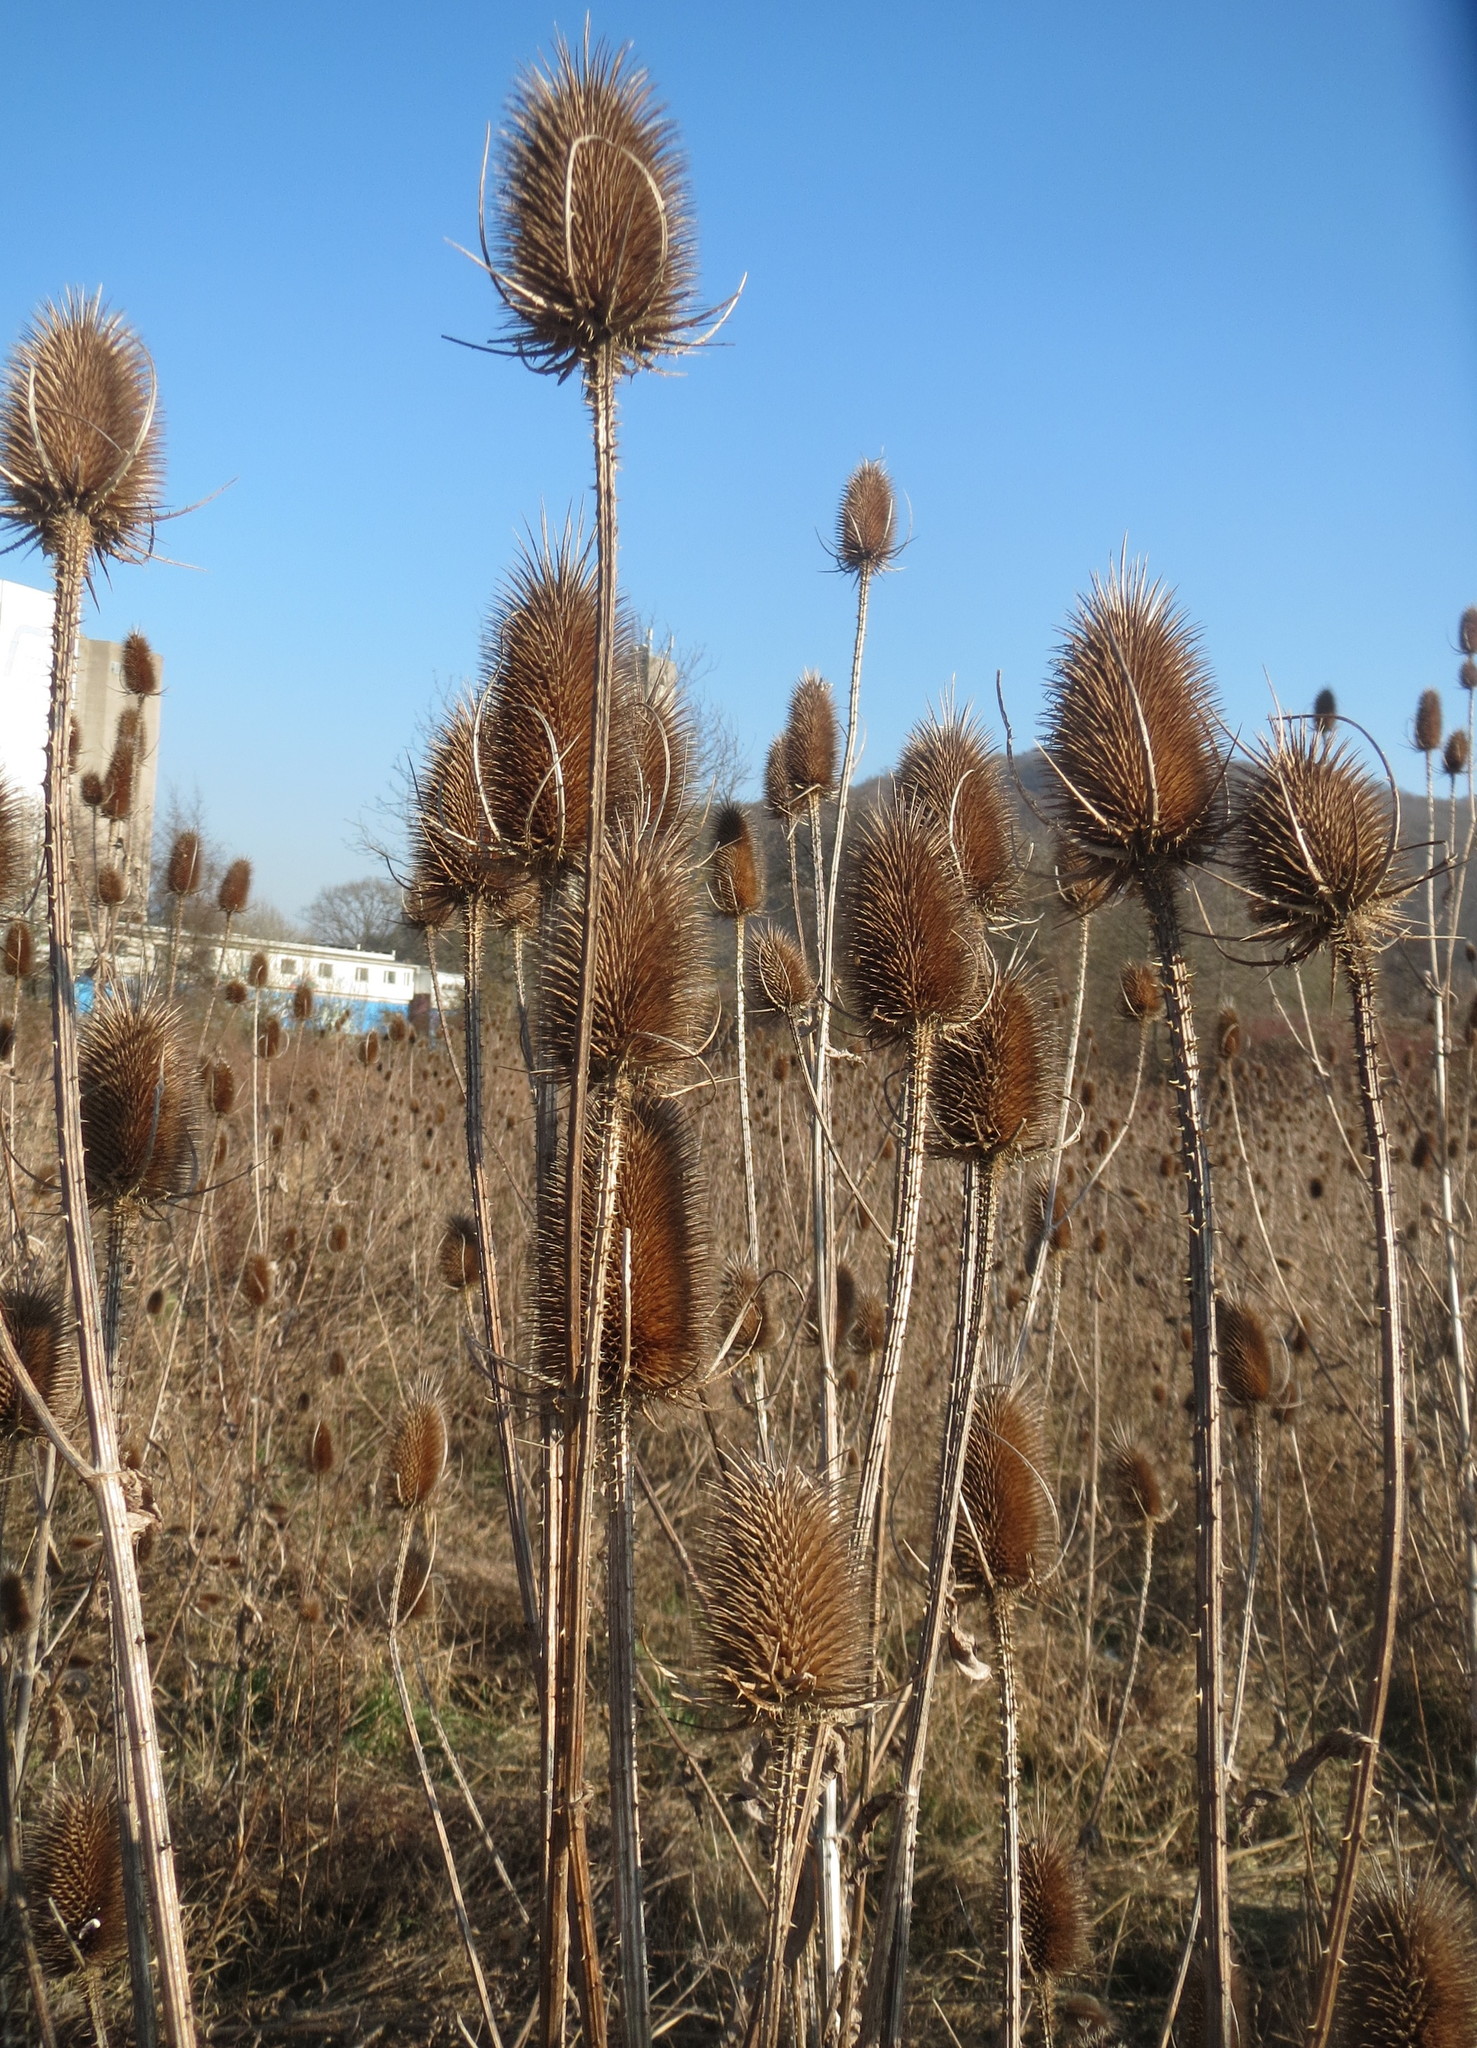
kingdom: Plantae
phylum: Tracheophyta
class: Magnoliopsida
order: Dipsacales
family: Caprifoliaceae
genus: Dipsacus
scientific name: Dipsacus fullonum
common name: Teasel
